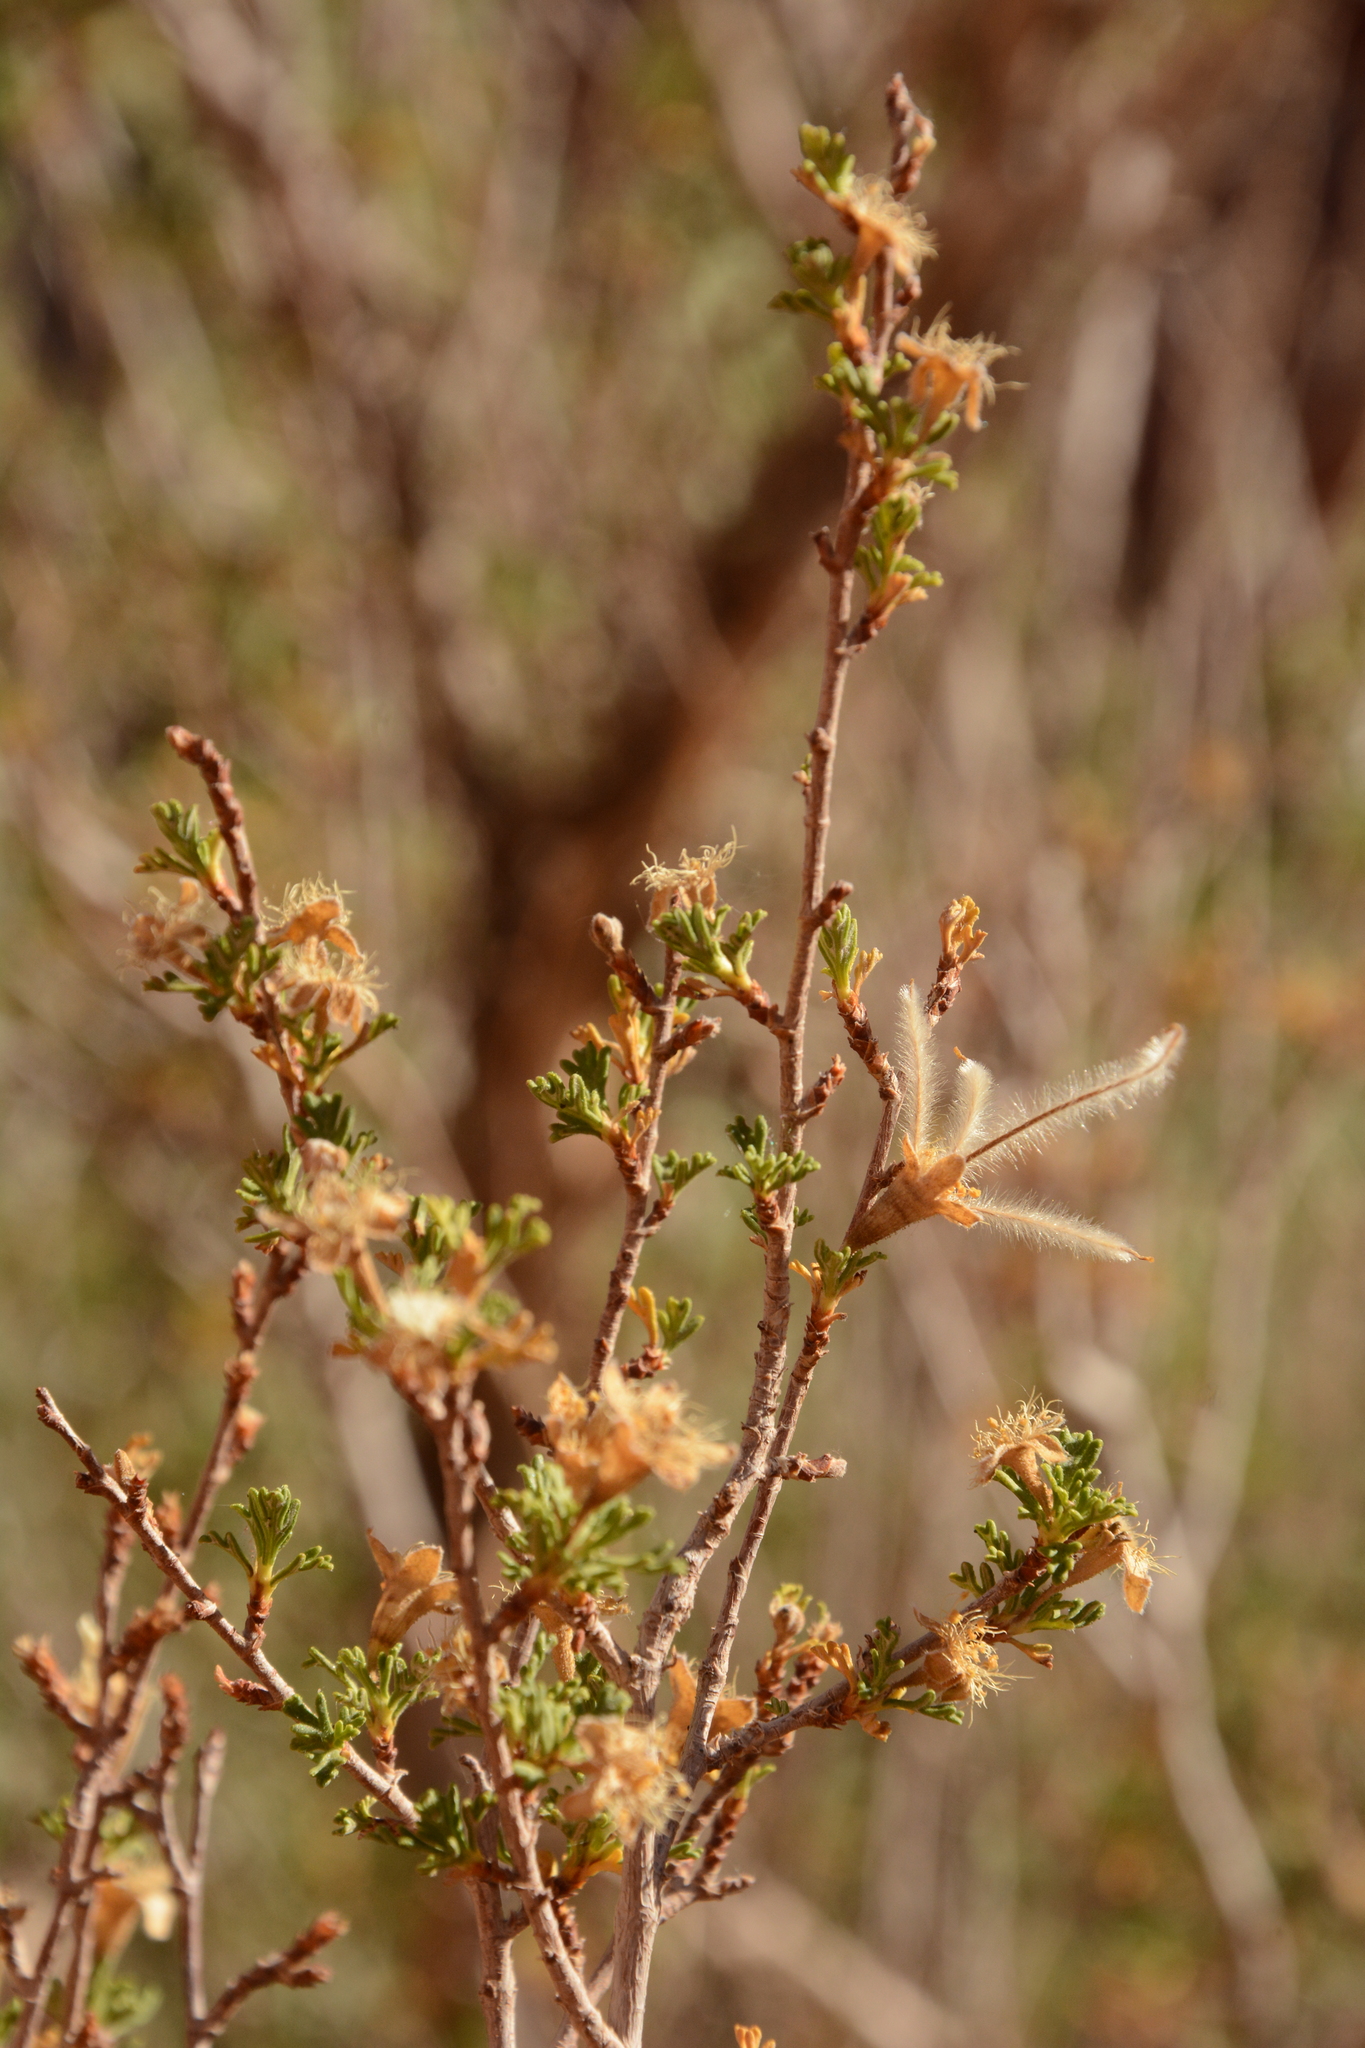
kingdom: Plantae
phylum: Tracheophyta
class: Magnoliopsida
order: Rosales
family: Rosaceae
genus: Purshia
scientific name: Purshia stansburiana
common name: Stansbury's cliffrose
